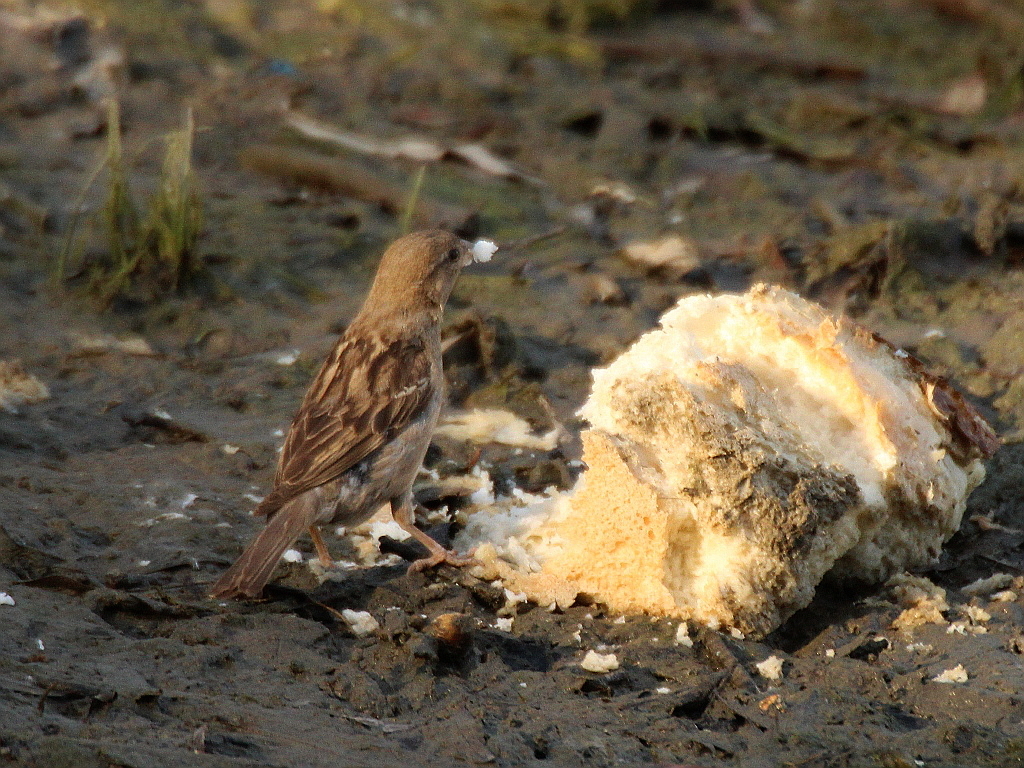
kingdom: Animalia
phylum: Chordata
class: Aves
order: Passeriformes
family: Passeridae
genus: Passer
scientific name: Passer domesticus
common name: House sparrow
